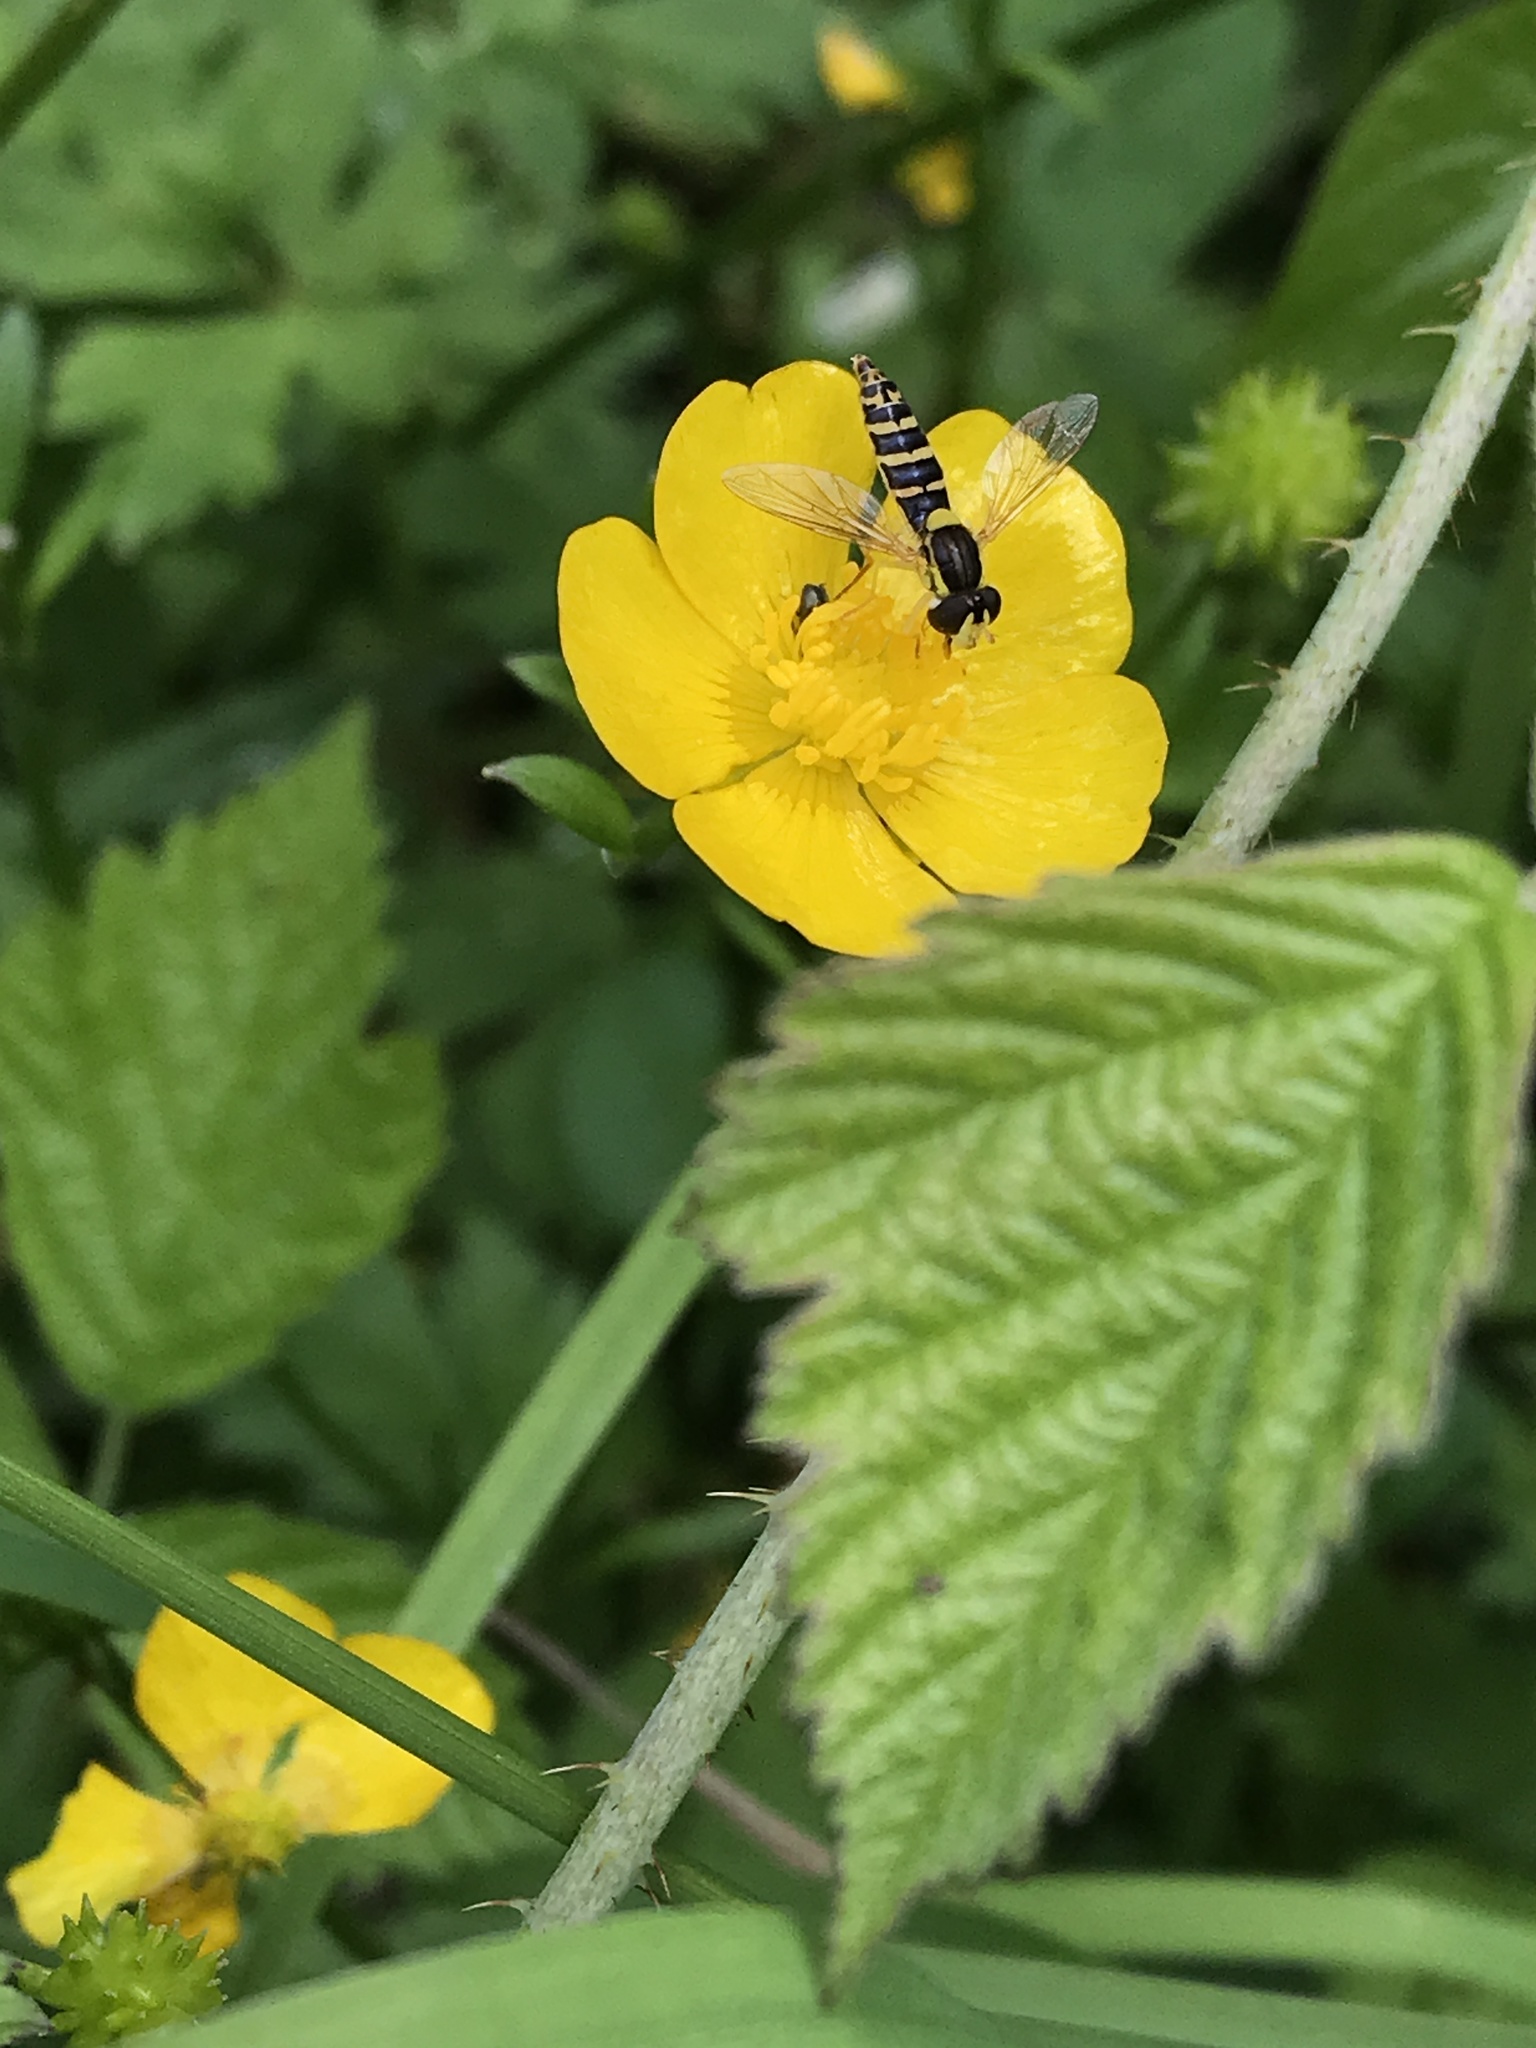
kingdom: Animalia
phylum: Arthropoda
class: Insecta
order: Diptera
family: Syrphidae
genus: Sphaerophoria
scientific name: Sphaerophoria
